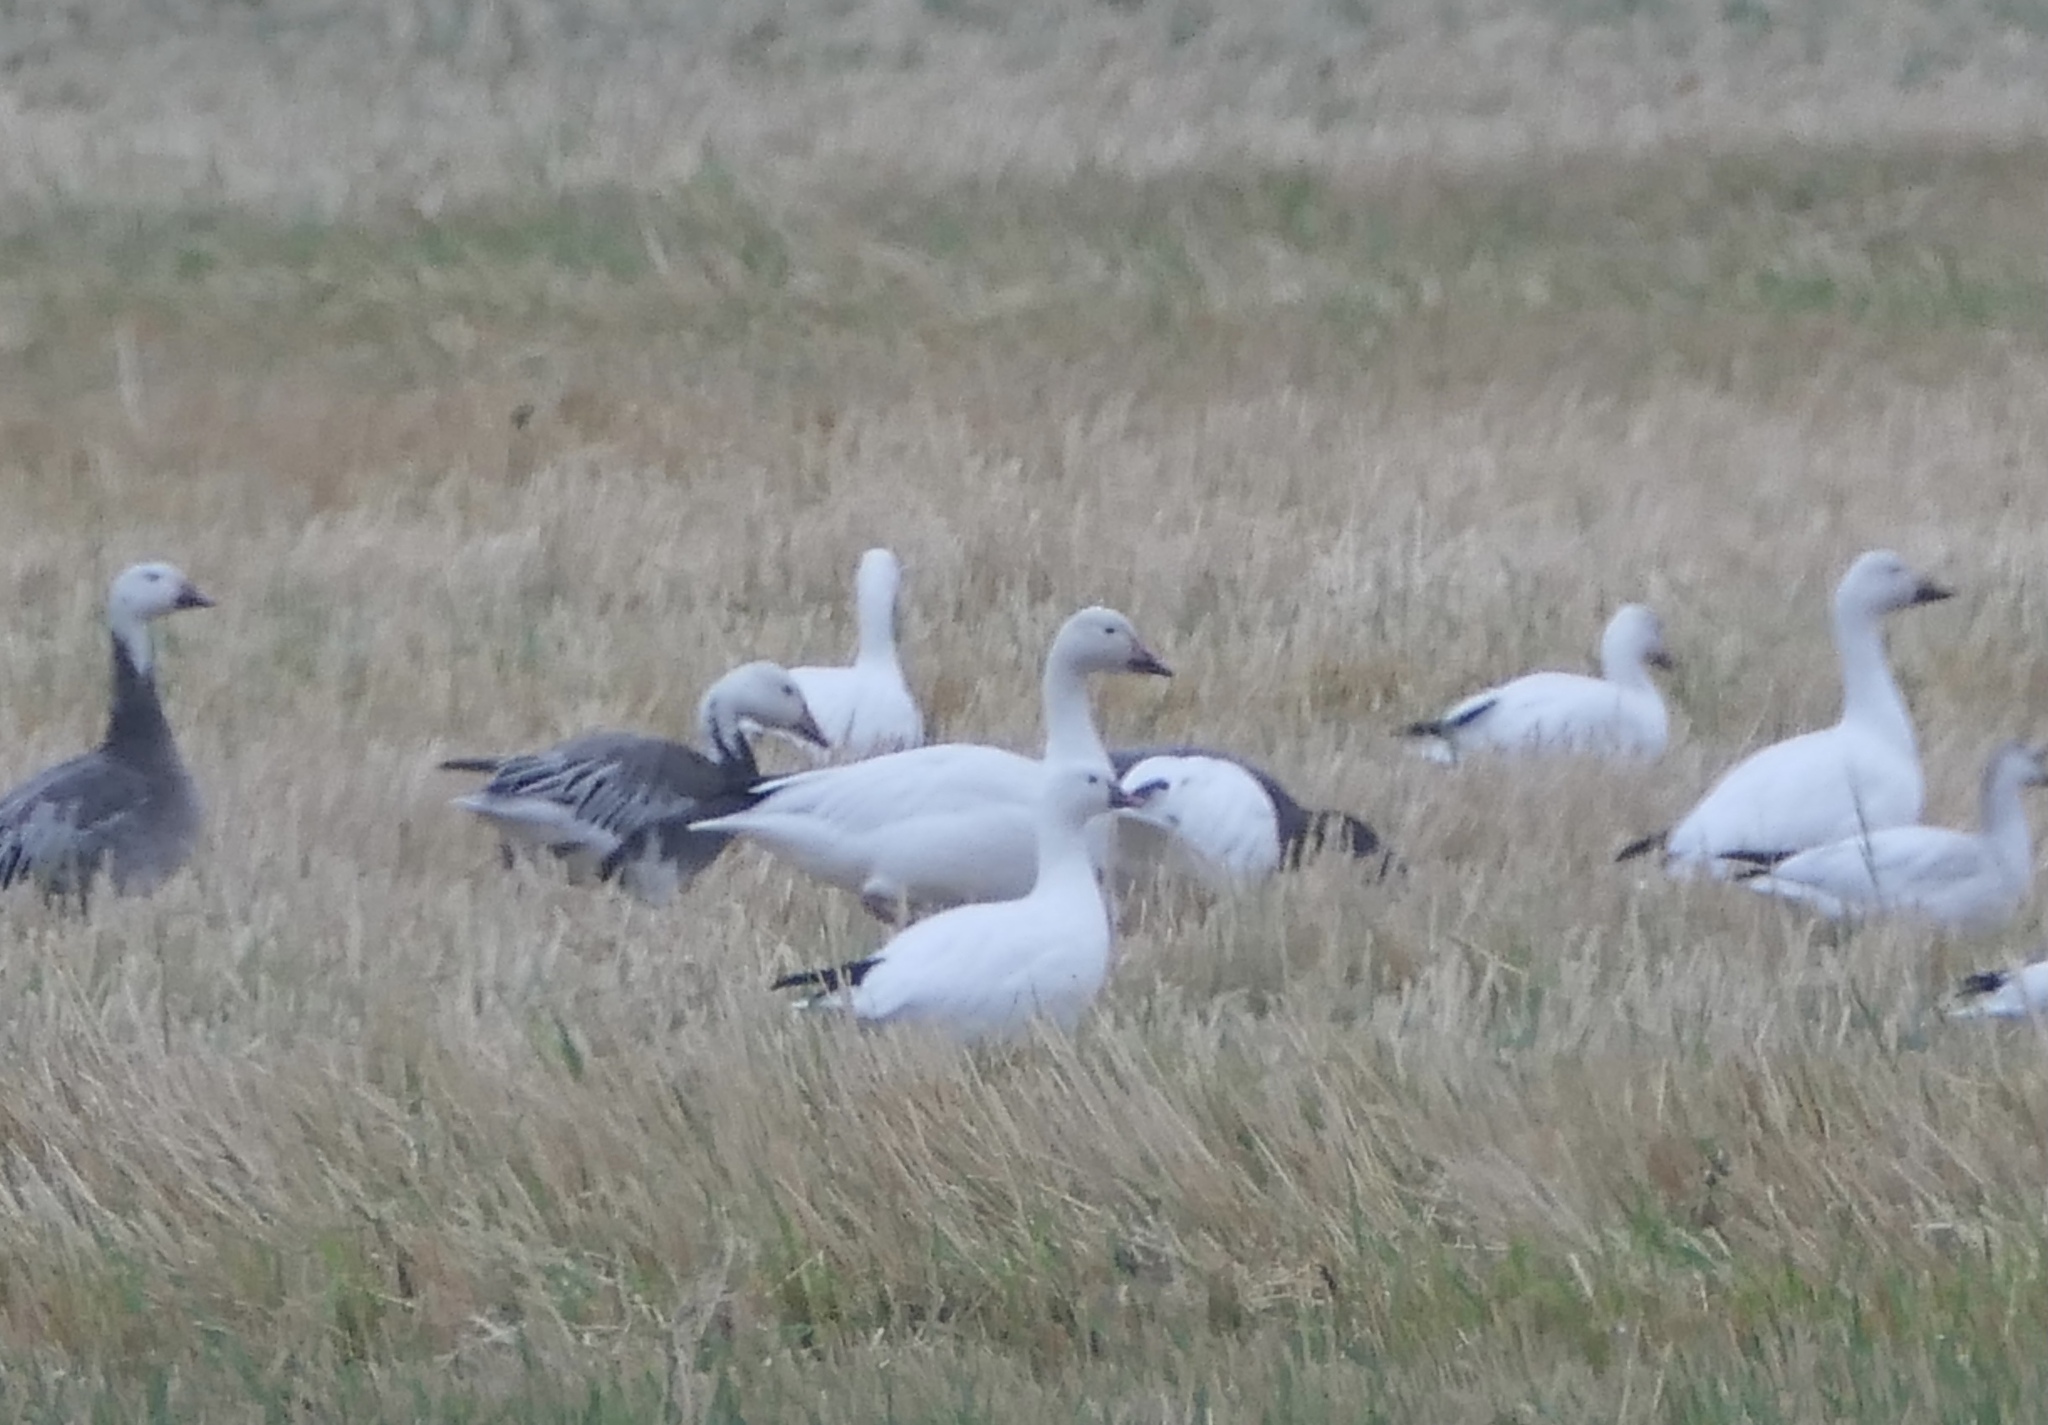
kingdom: Animalia
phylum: Chordata
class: Aves
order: Anseriformes
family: Anatidae
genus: Anser
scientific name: Anser caerulescens
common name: Snow goose
